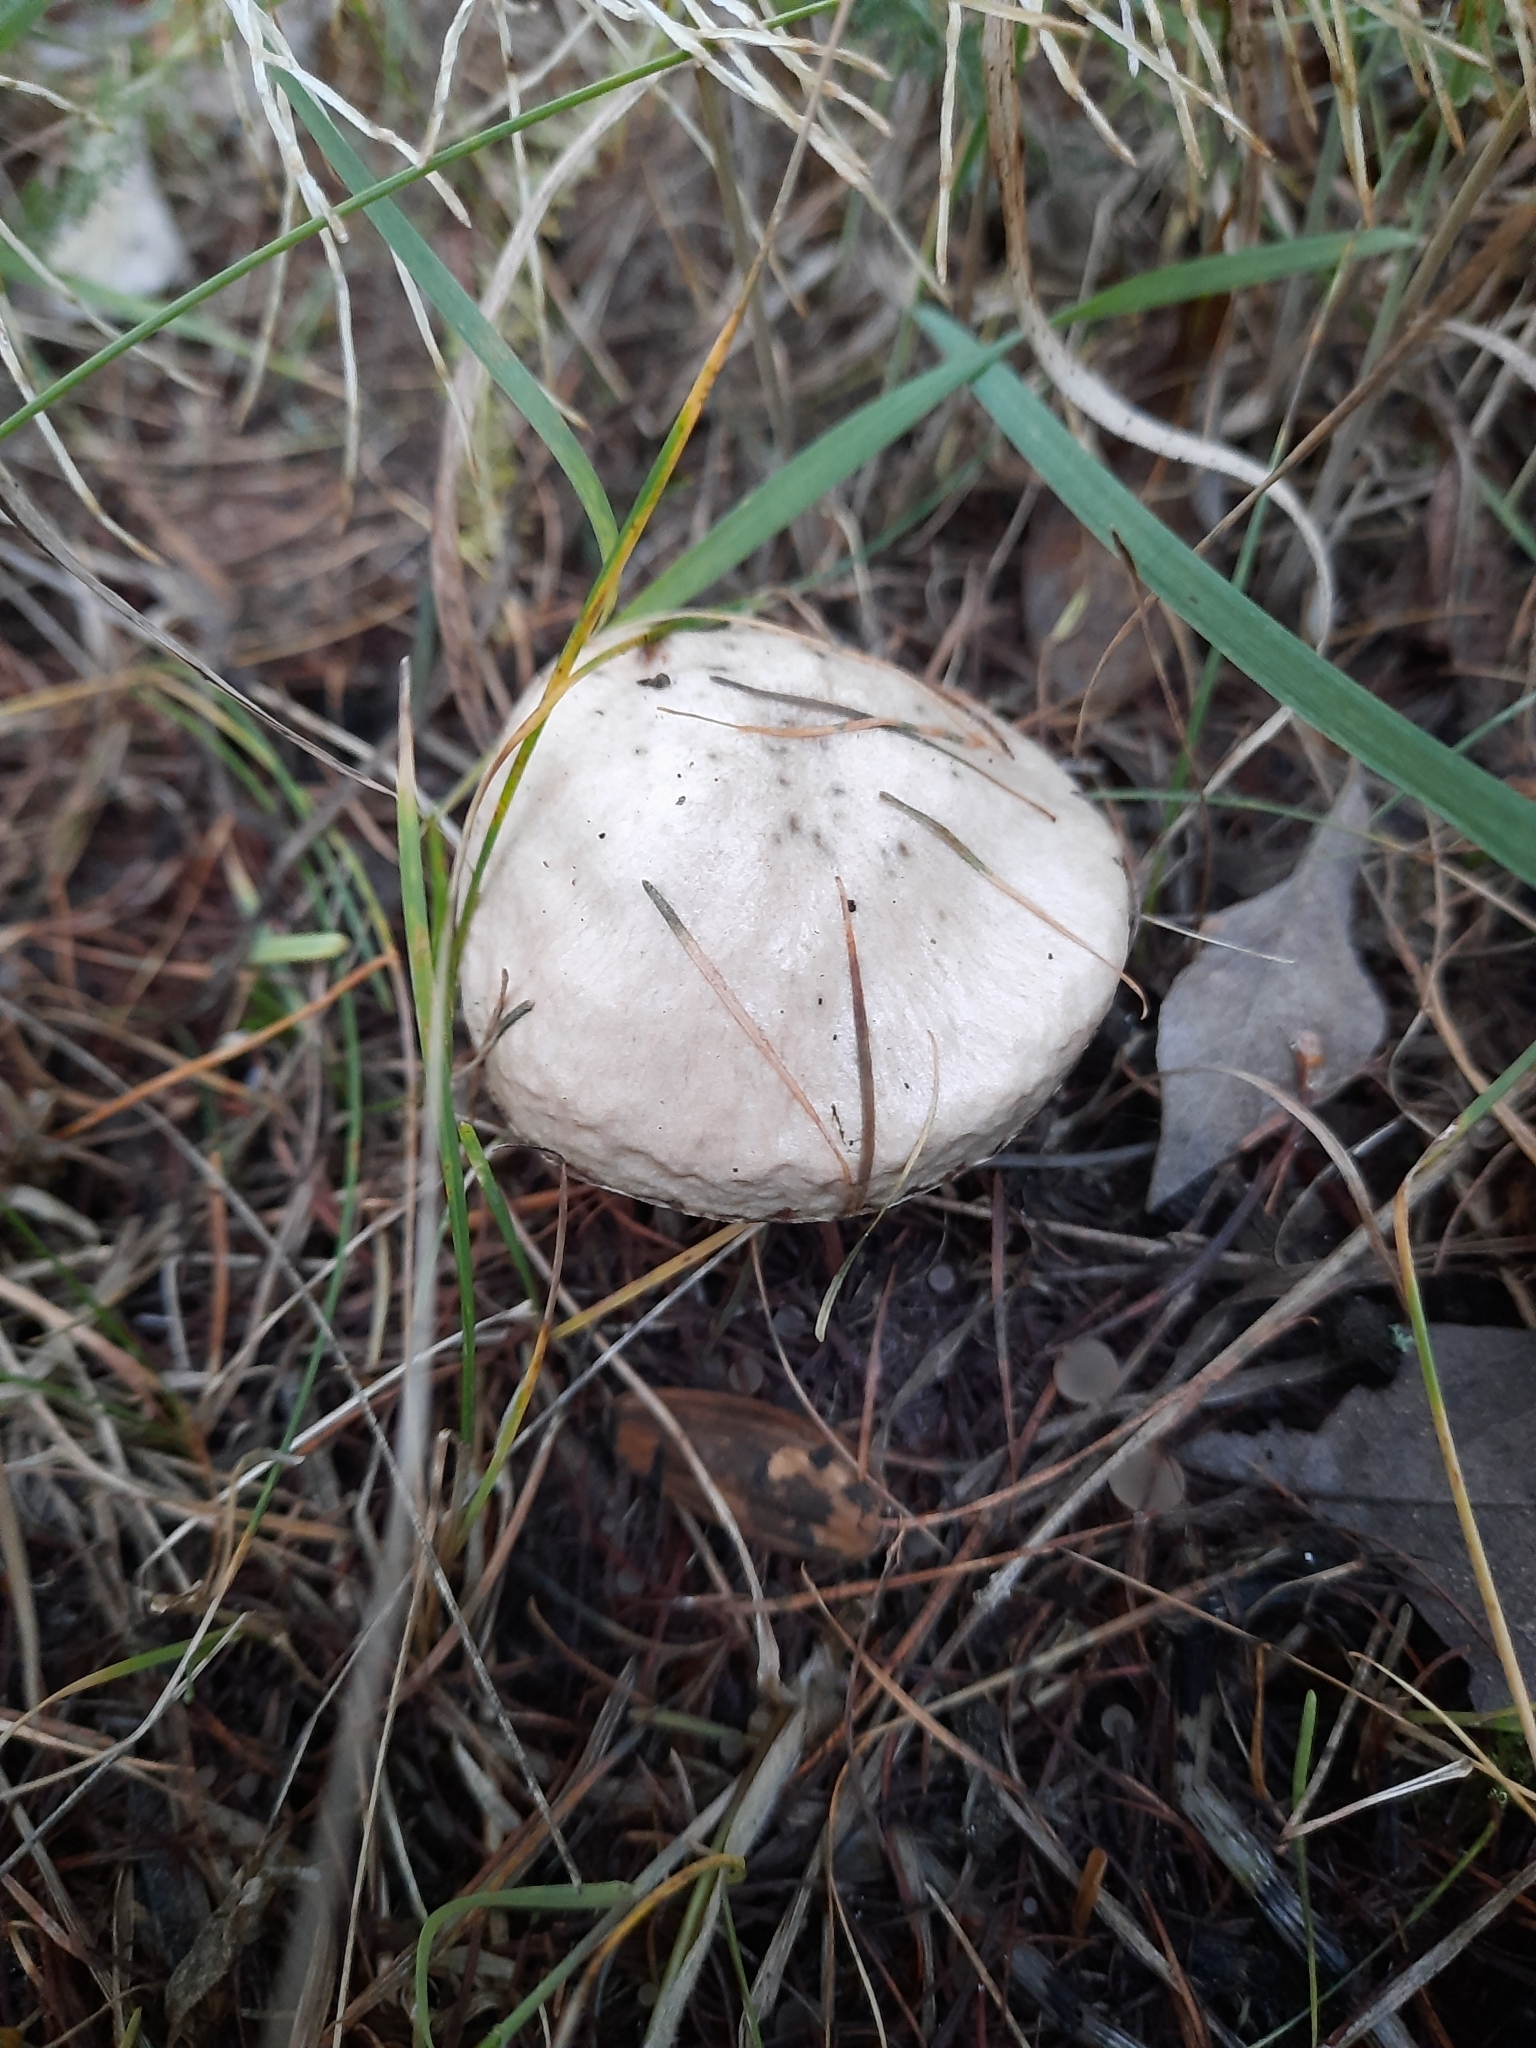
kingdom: Fungi
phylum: Basidiomycota
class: Agaricomycetes
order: Boletales
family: Suillaceae
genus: Suillus
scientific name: Suillus viscidus
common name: Sticky bolete
